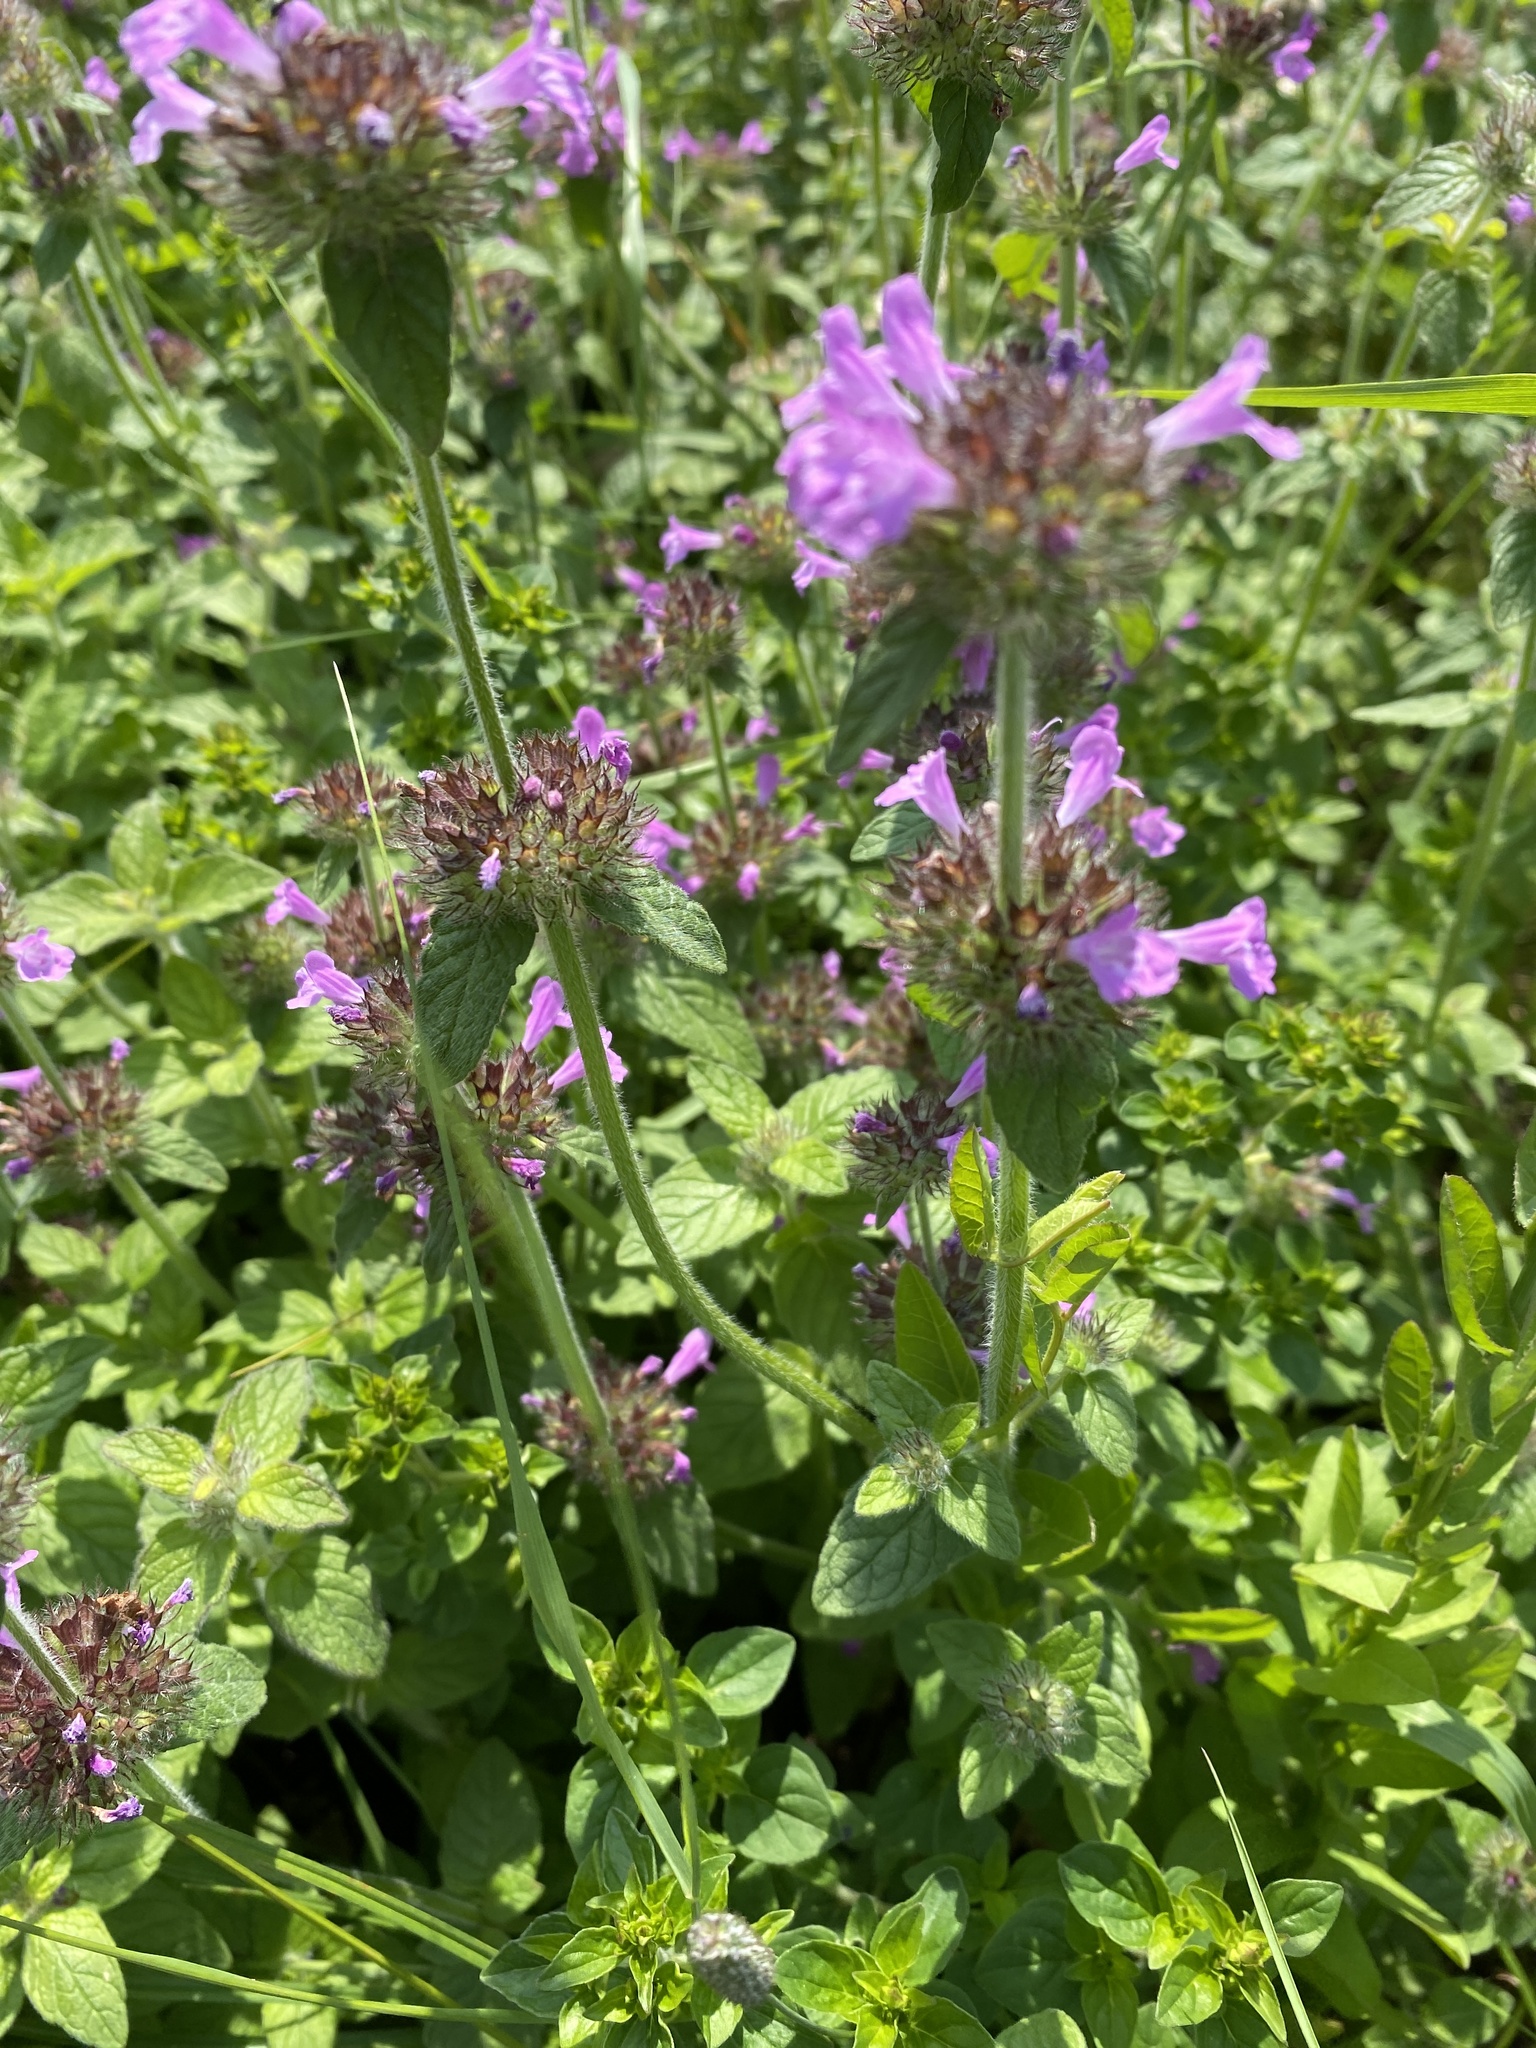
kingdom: Plantae
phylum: Tracheophyta
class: Magnoliopsida
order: Lamiales
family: Lamiaceae
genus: Clinopodium
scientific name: Clinopodium vulgare
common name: Wild basil
